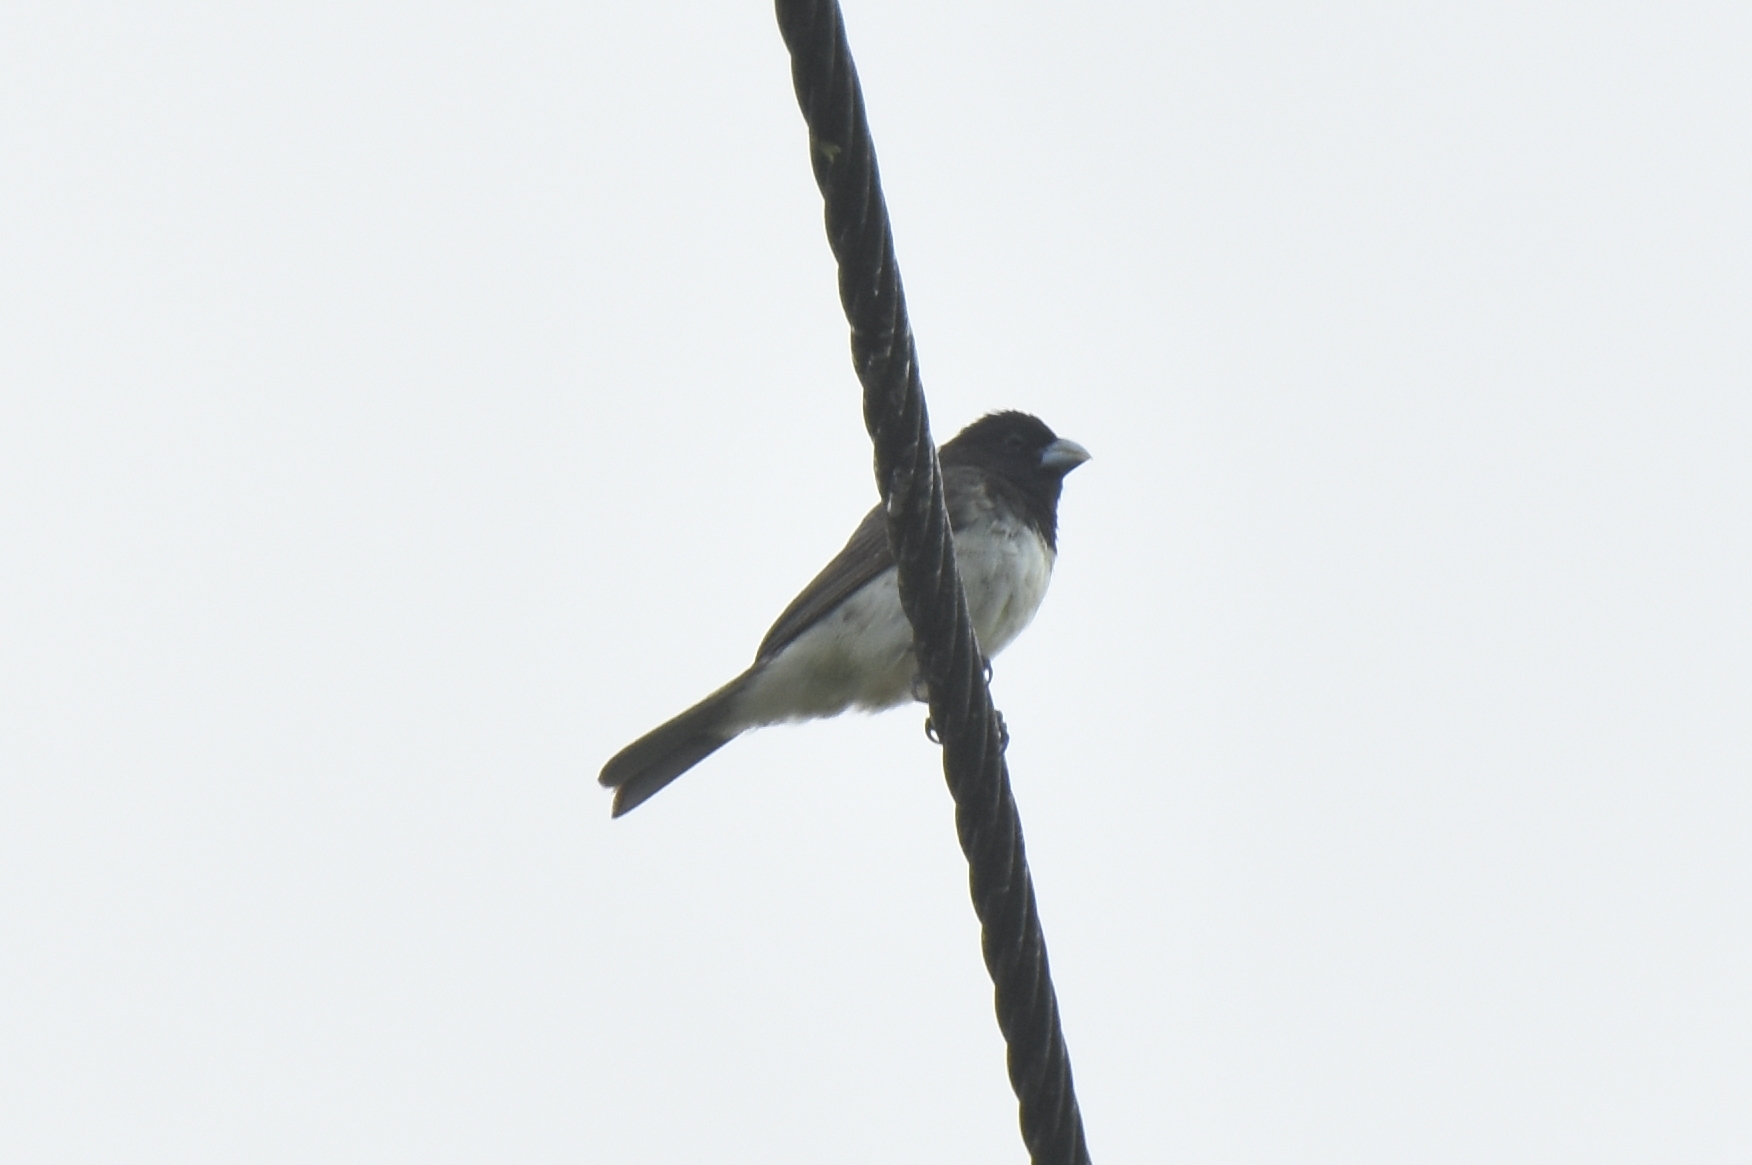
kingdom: Animalia
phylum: Chordata
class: Aves
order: Passeriformes
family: Thraupidae
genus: Sporophila
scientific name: Sporophila nigricollis
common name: Yellow-bellied seedeater
